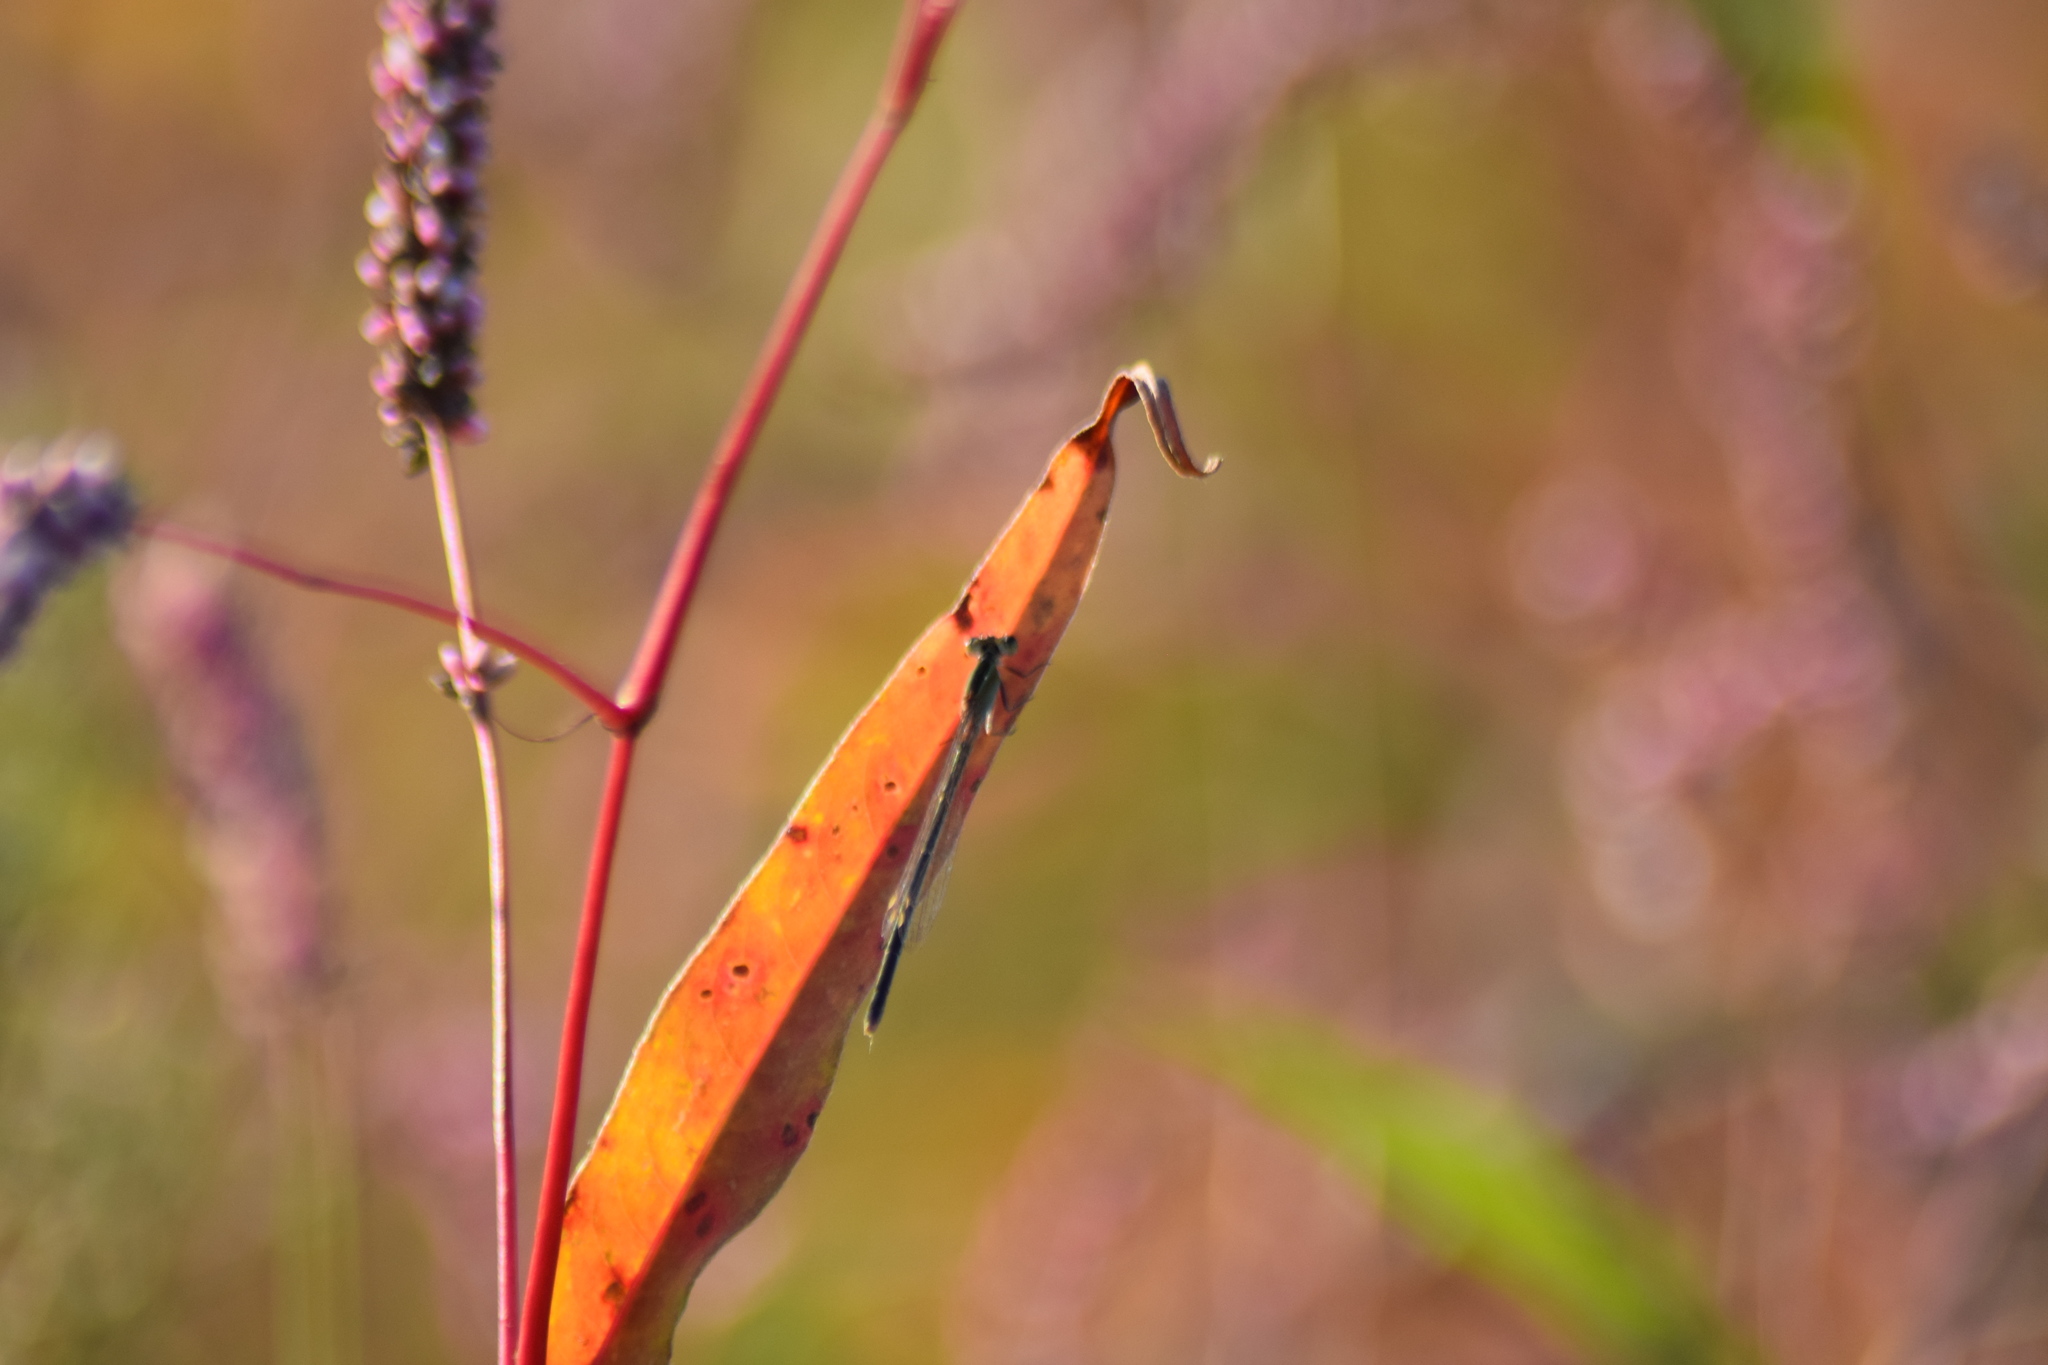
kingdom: Animalia
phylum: Arthropoda
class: Insecta
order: Odonata
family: Coenagrionidae
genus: Ischnura
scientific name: Ischnura hastata
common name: Citrine forktail
